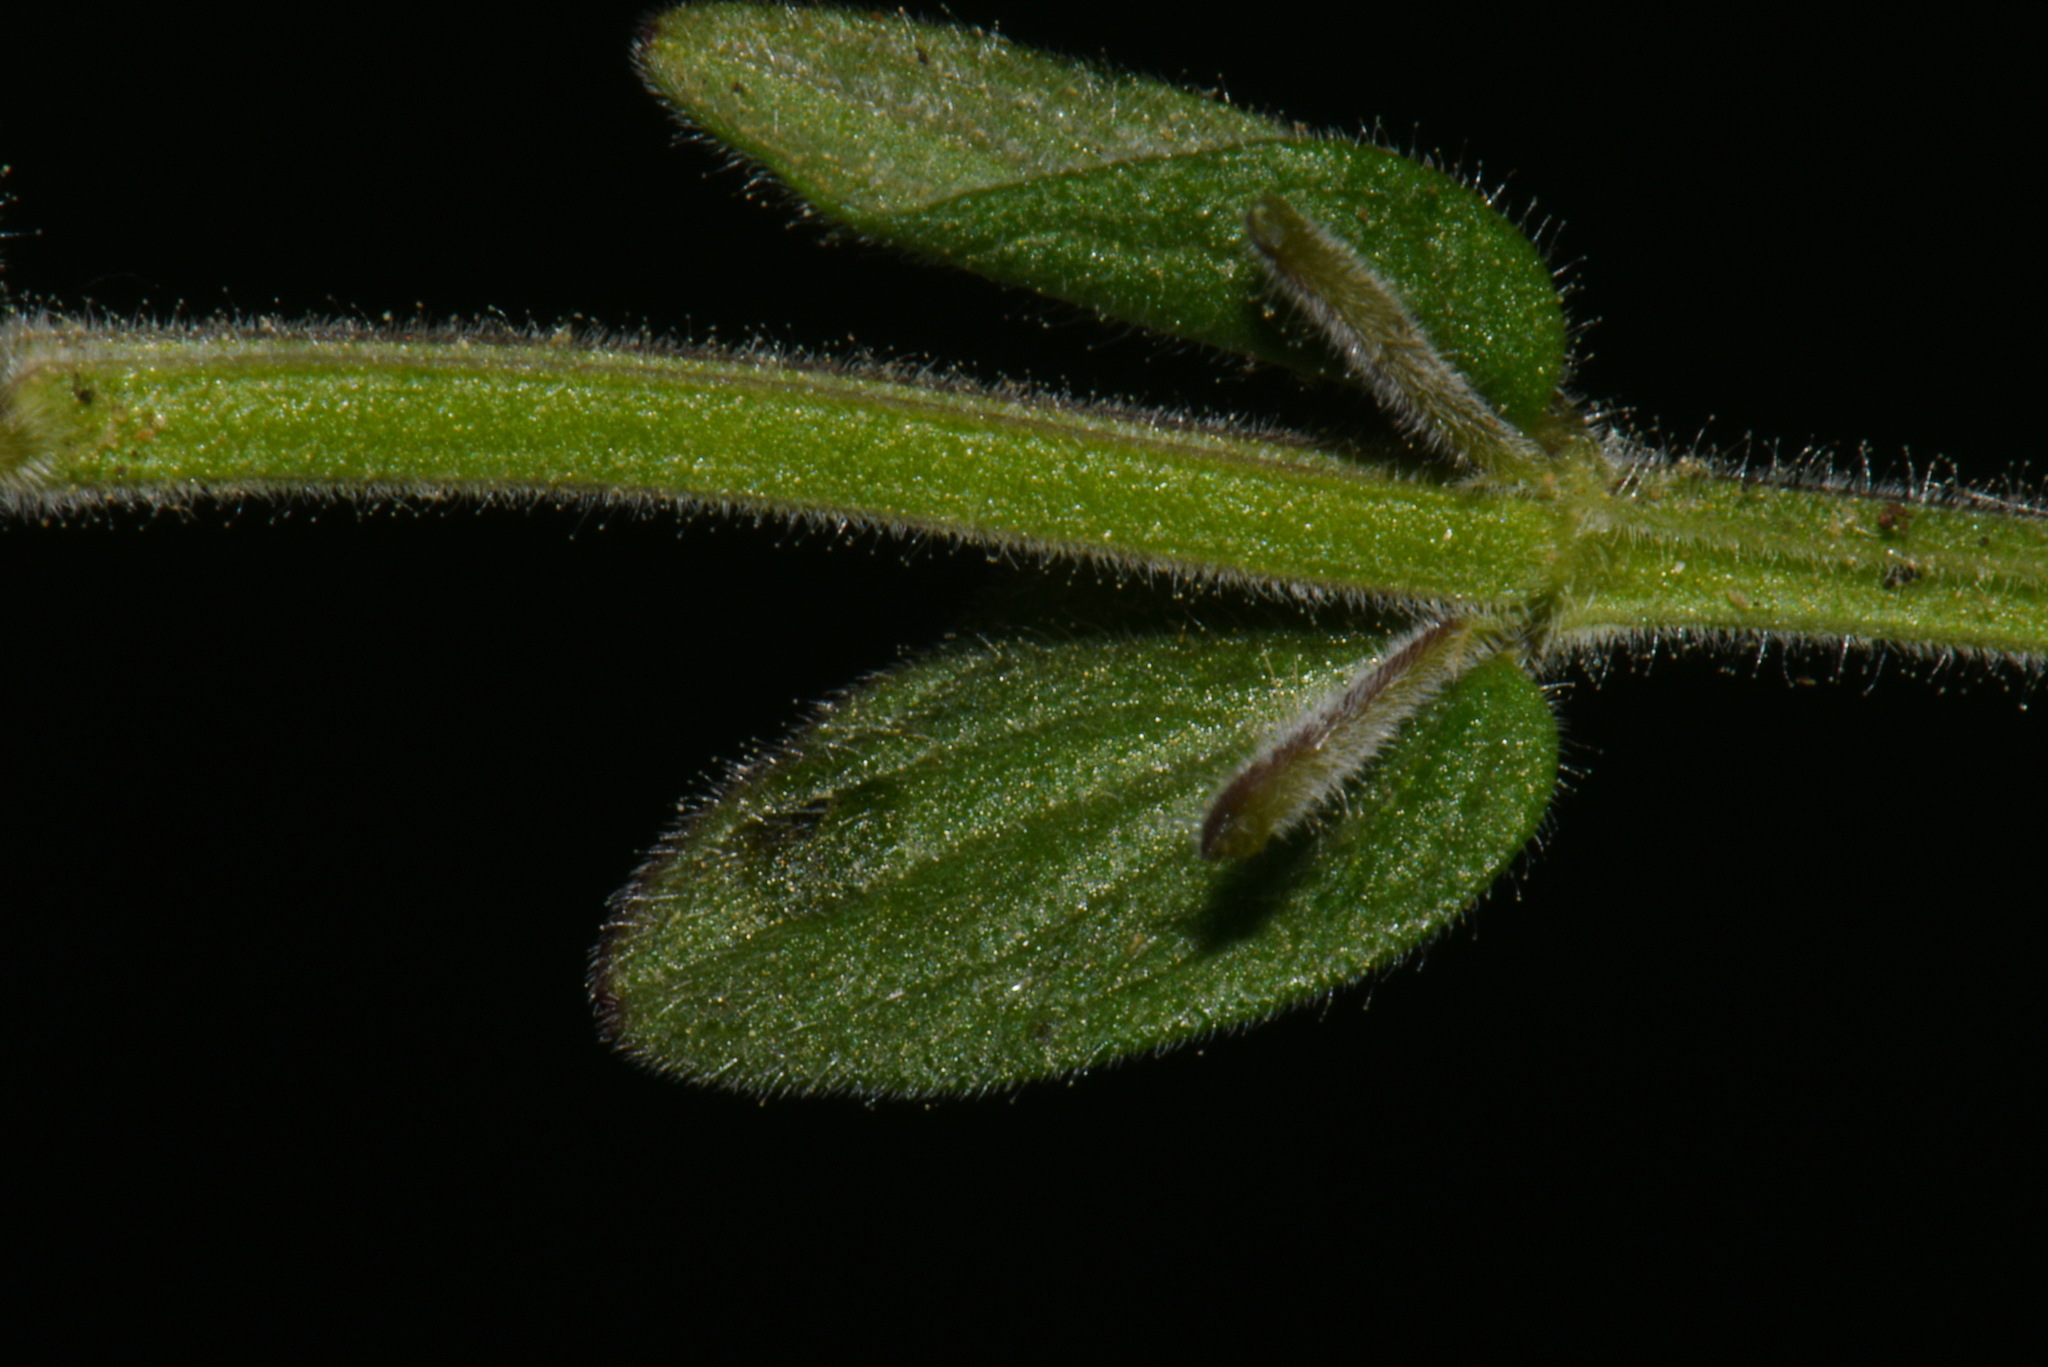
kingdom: Plantae
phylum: Tracheophyta
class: Magnoliopsida
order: Lamiales
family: Lamiaceae
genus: Scutellaria
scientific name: Scutellaria parvula
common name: Little scullcap
